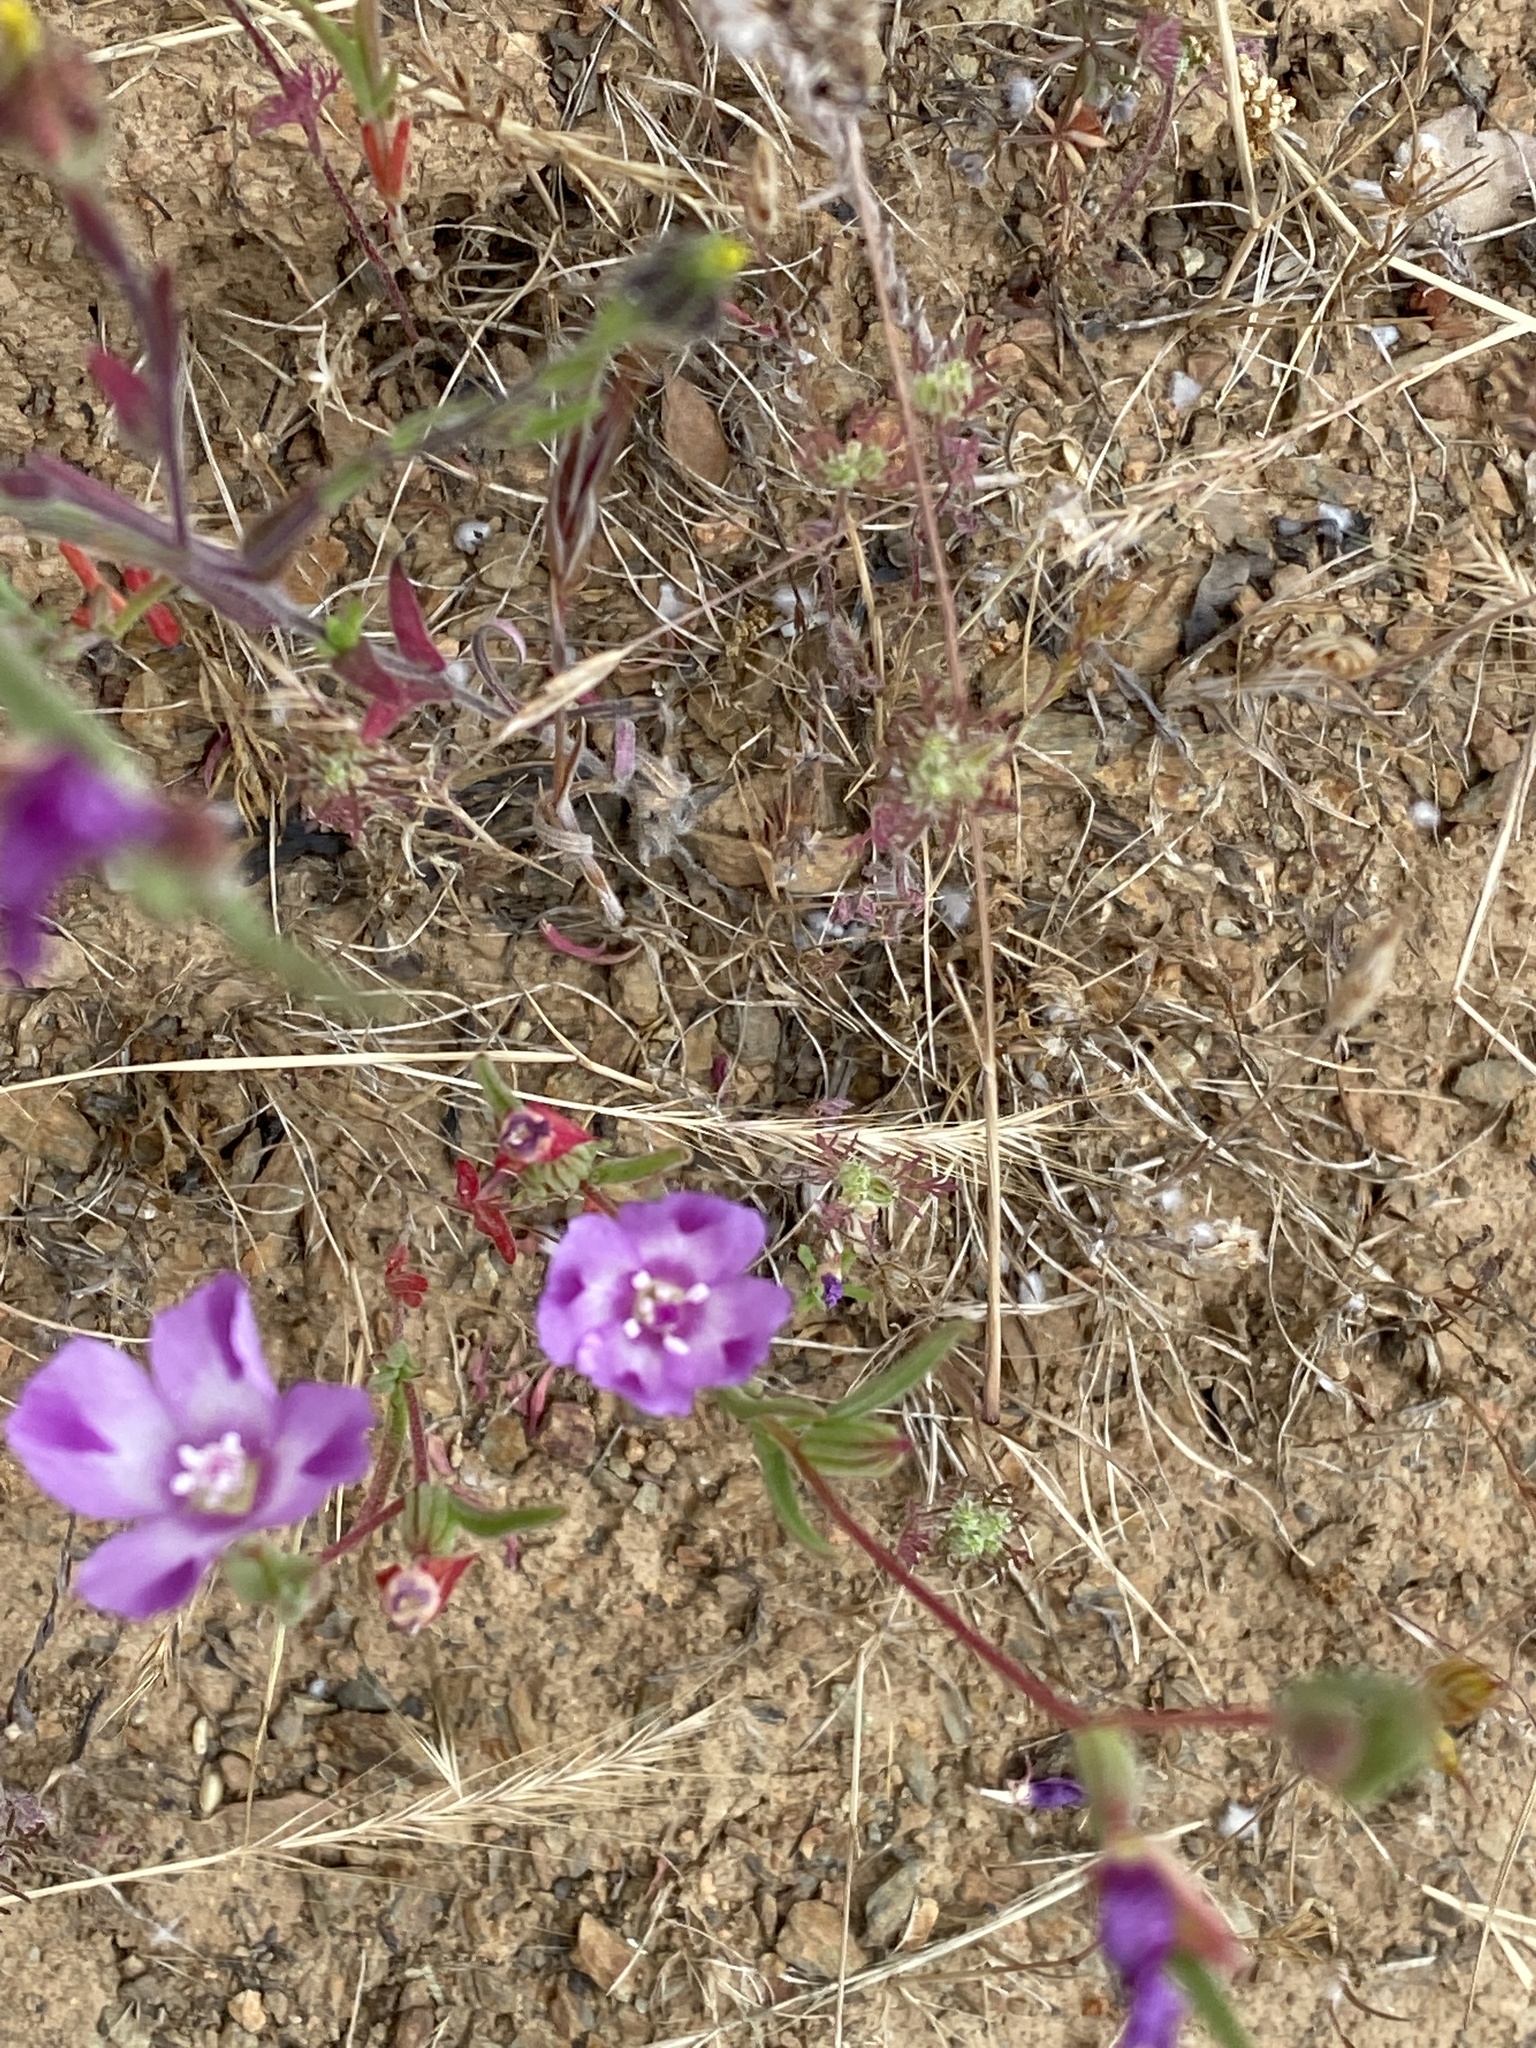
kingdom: Plantae
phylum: Tracheophyta
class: Magnoliopsida
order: Myrtales
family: Onagraceae
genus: Clarkia
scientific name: Clarkia purpurea
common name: Purple clarkia
